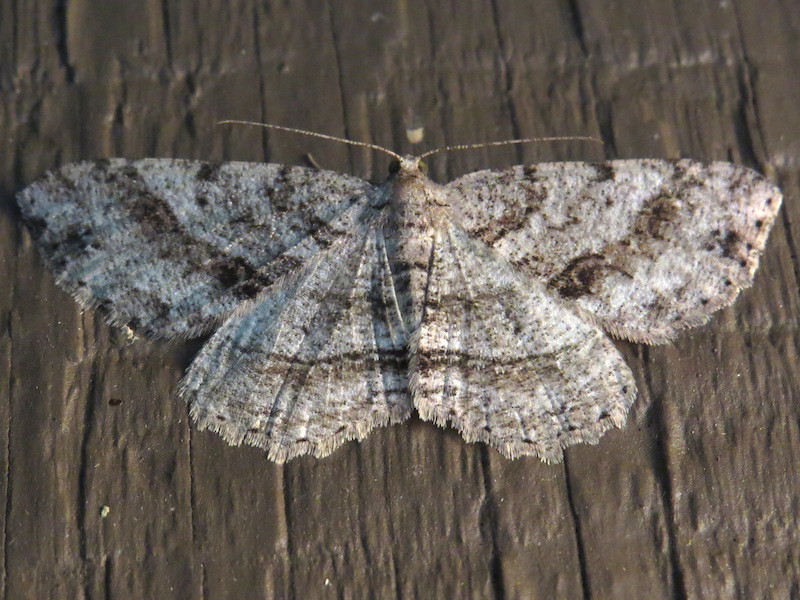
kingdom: Animalia
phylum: Arthropoda
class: Insecta
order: Lepidoptera
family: Geometridae
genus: Melanolophia
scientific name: Melanolophia canadaria
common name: Canadian melanolophia
